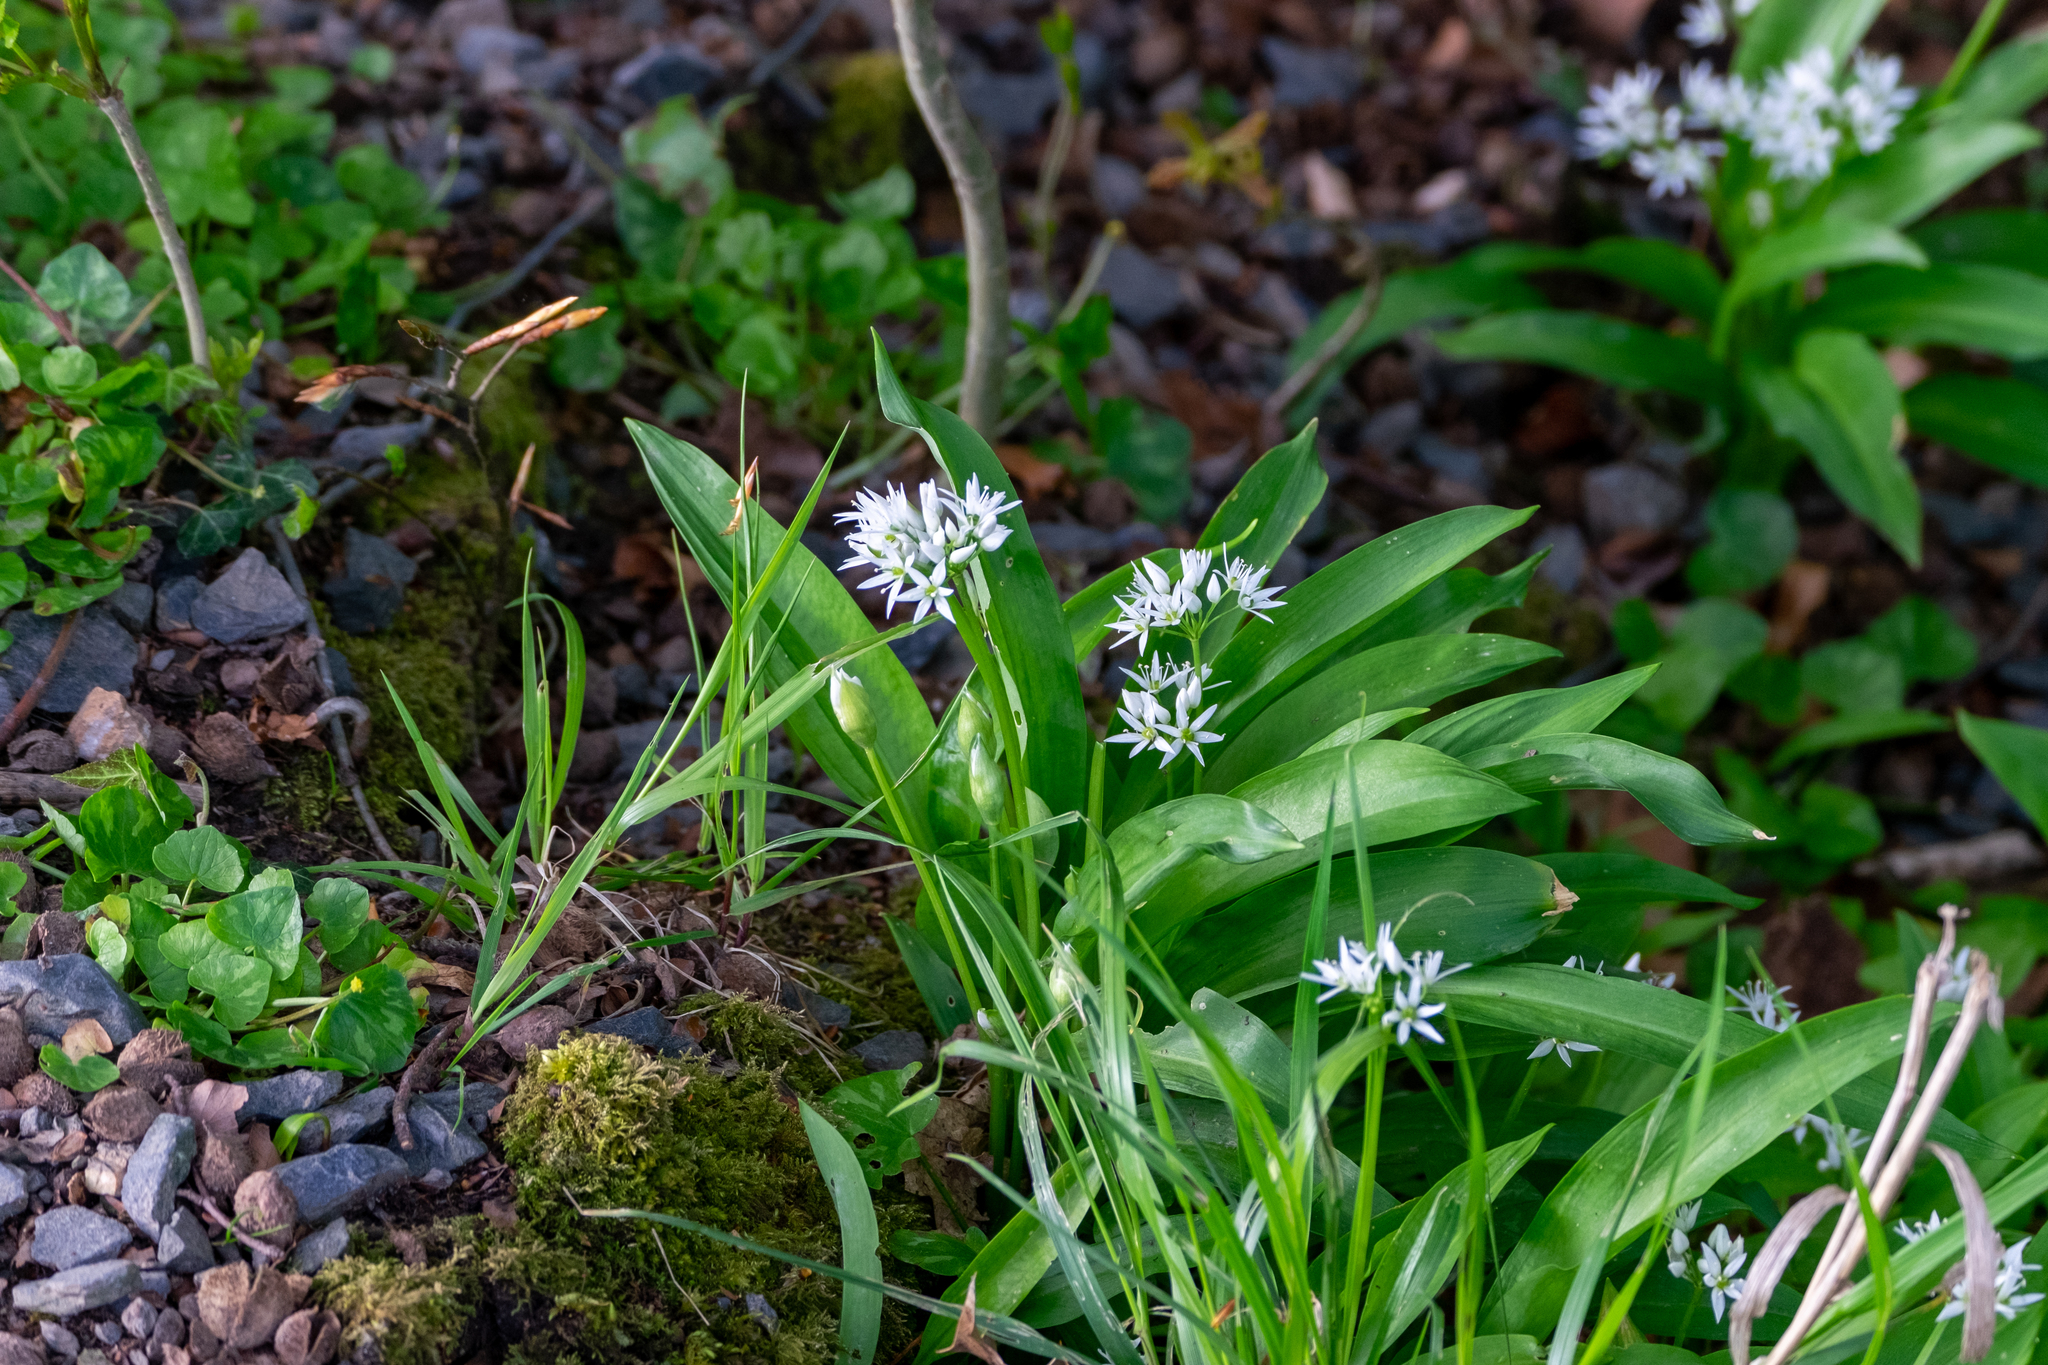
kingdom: Plantae
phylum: Tracheophyta
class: Liliopsida
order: Asparagales
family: Amaryllidaceae
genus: Allium
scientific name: Allium ursinum
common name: Ramsons
